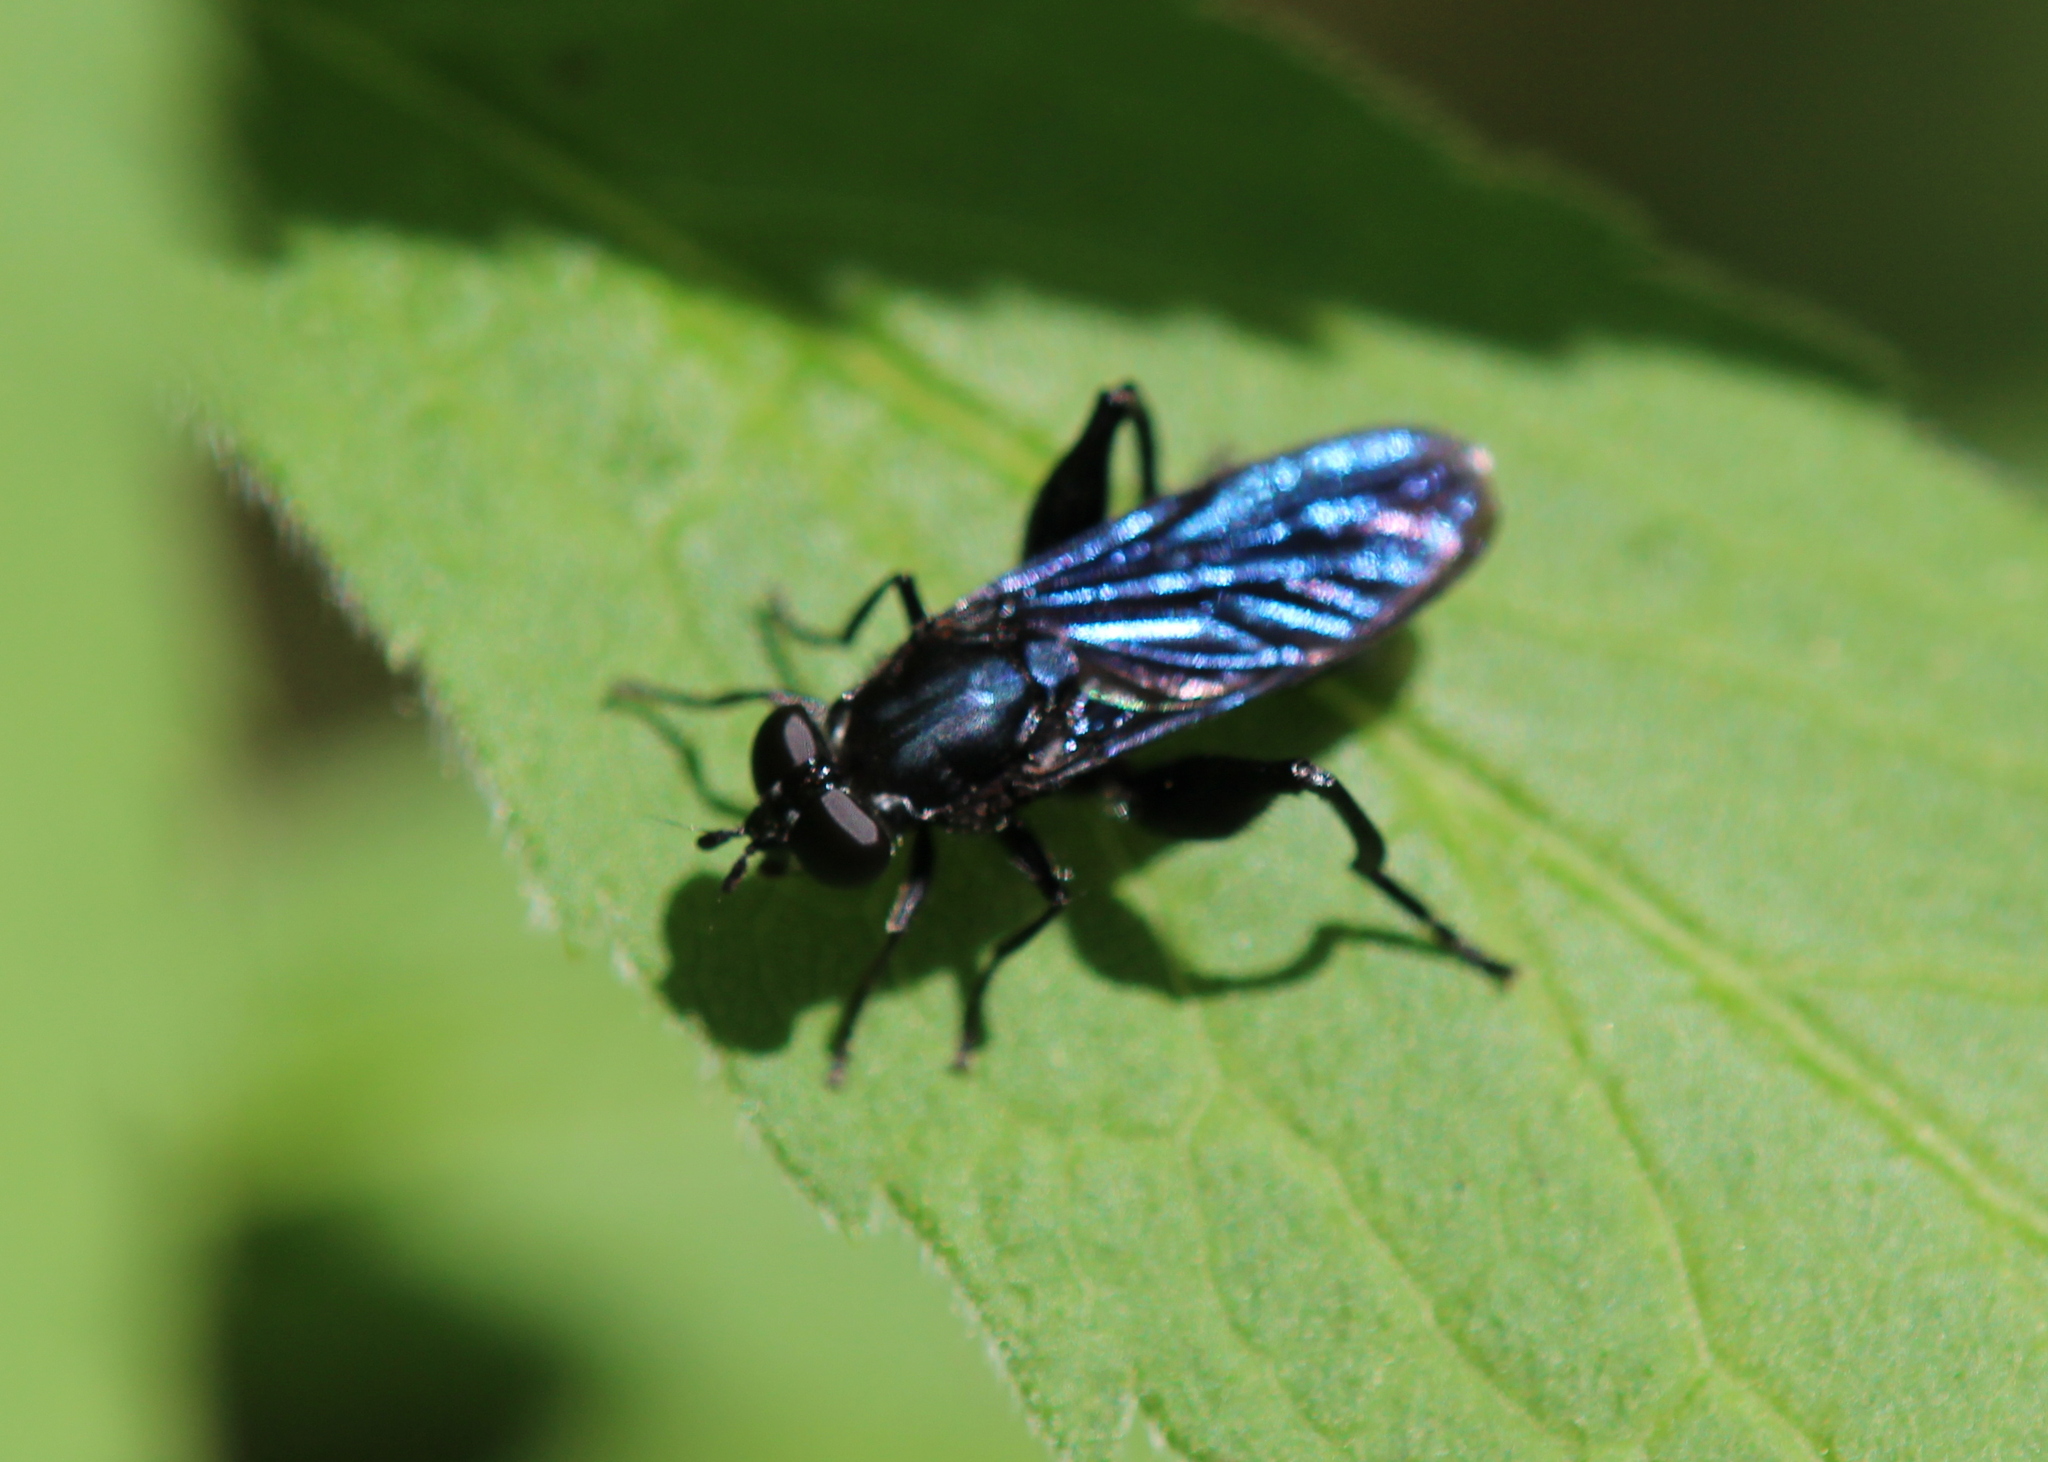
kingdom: Animalia
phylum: Arthropoda
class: Insecta
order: Diptera
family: Syrphidae
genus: Chalcosyrphus
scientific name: Chalcosyrphus chalybeus
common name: Violet leafwalker
